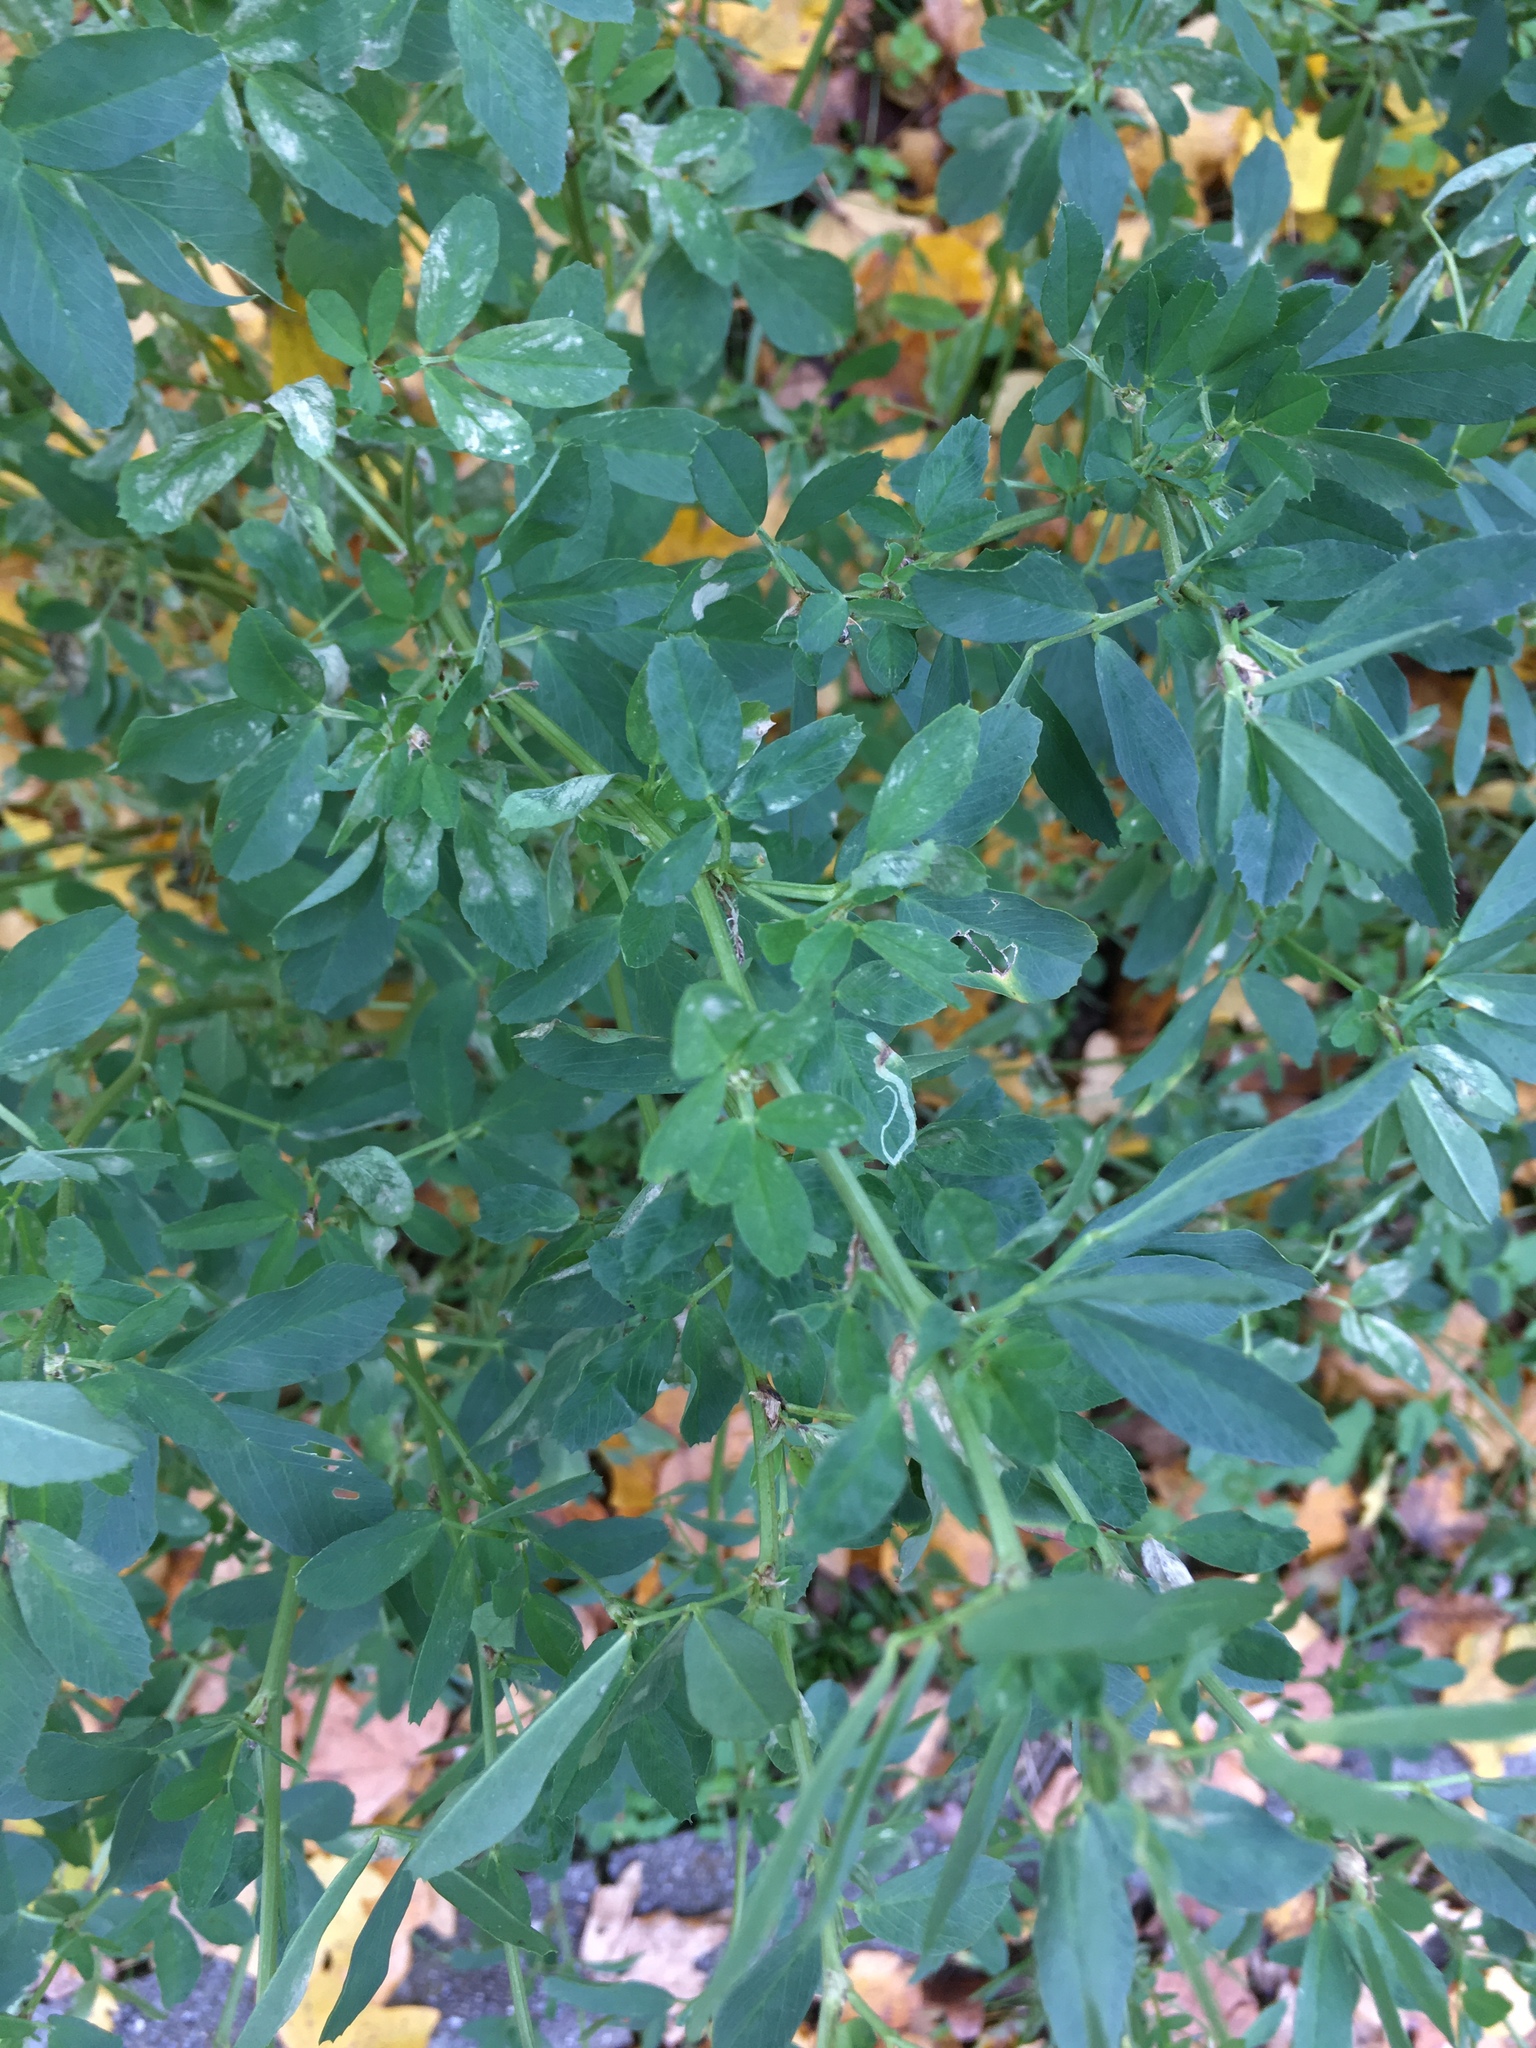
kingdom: Plantae
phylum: Tracheophyta
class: Magnoliopsida
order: Fabales
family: Fabaceae
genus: Medicago
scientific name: Medicago sativa
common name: Alfalfa
